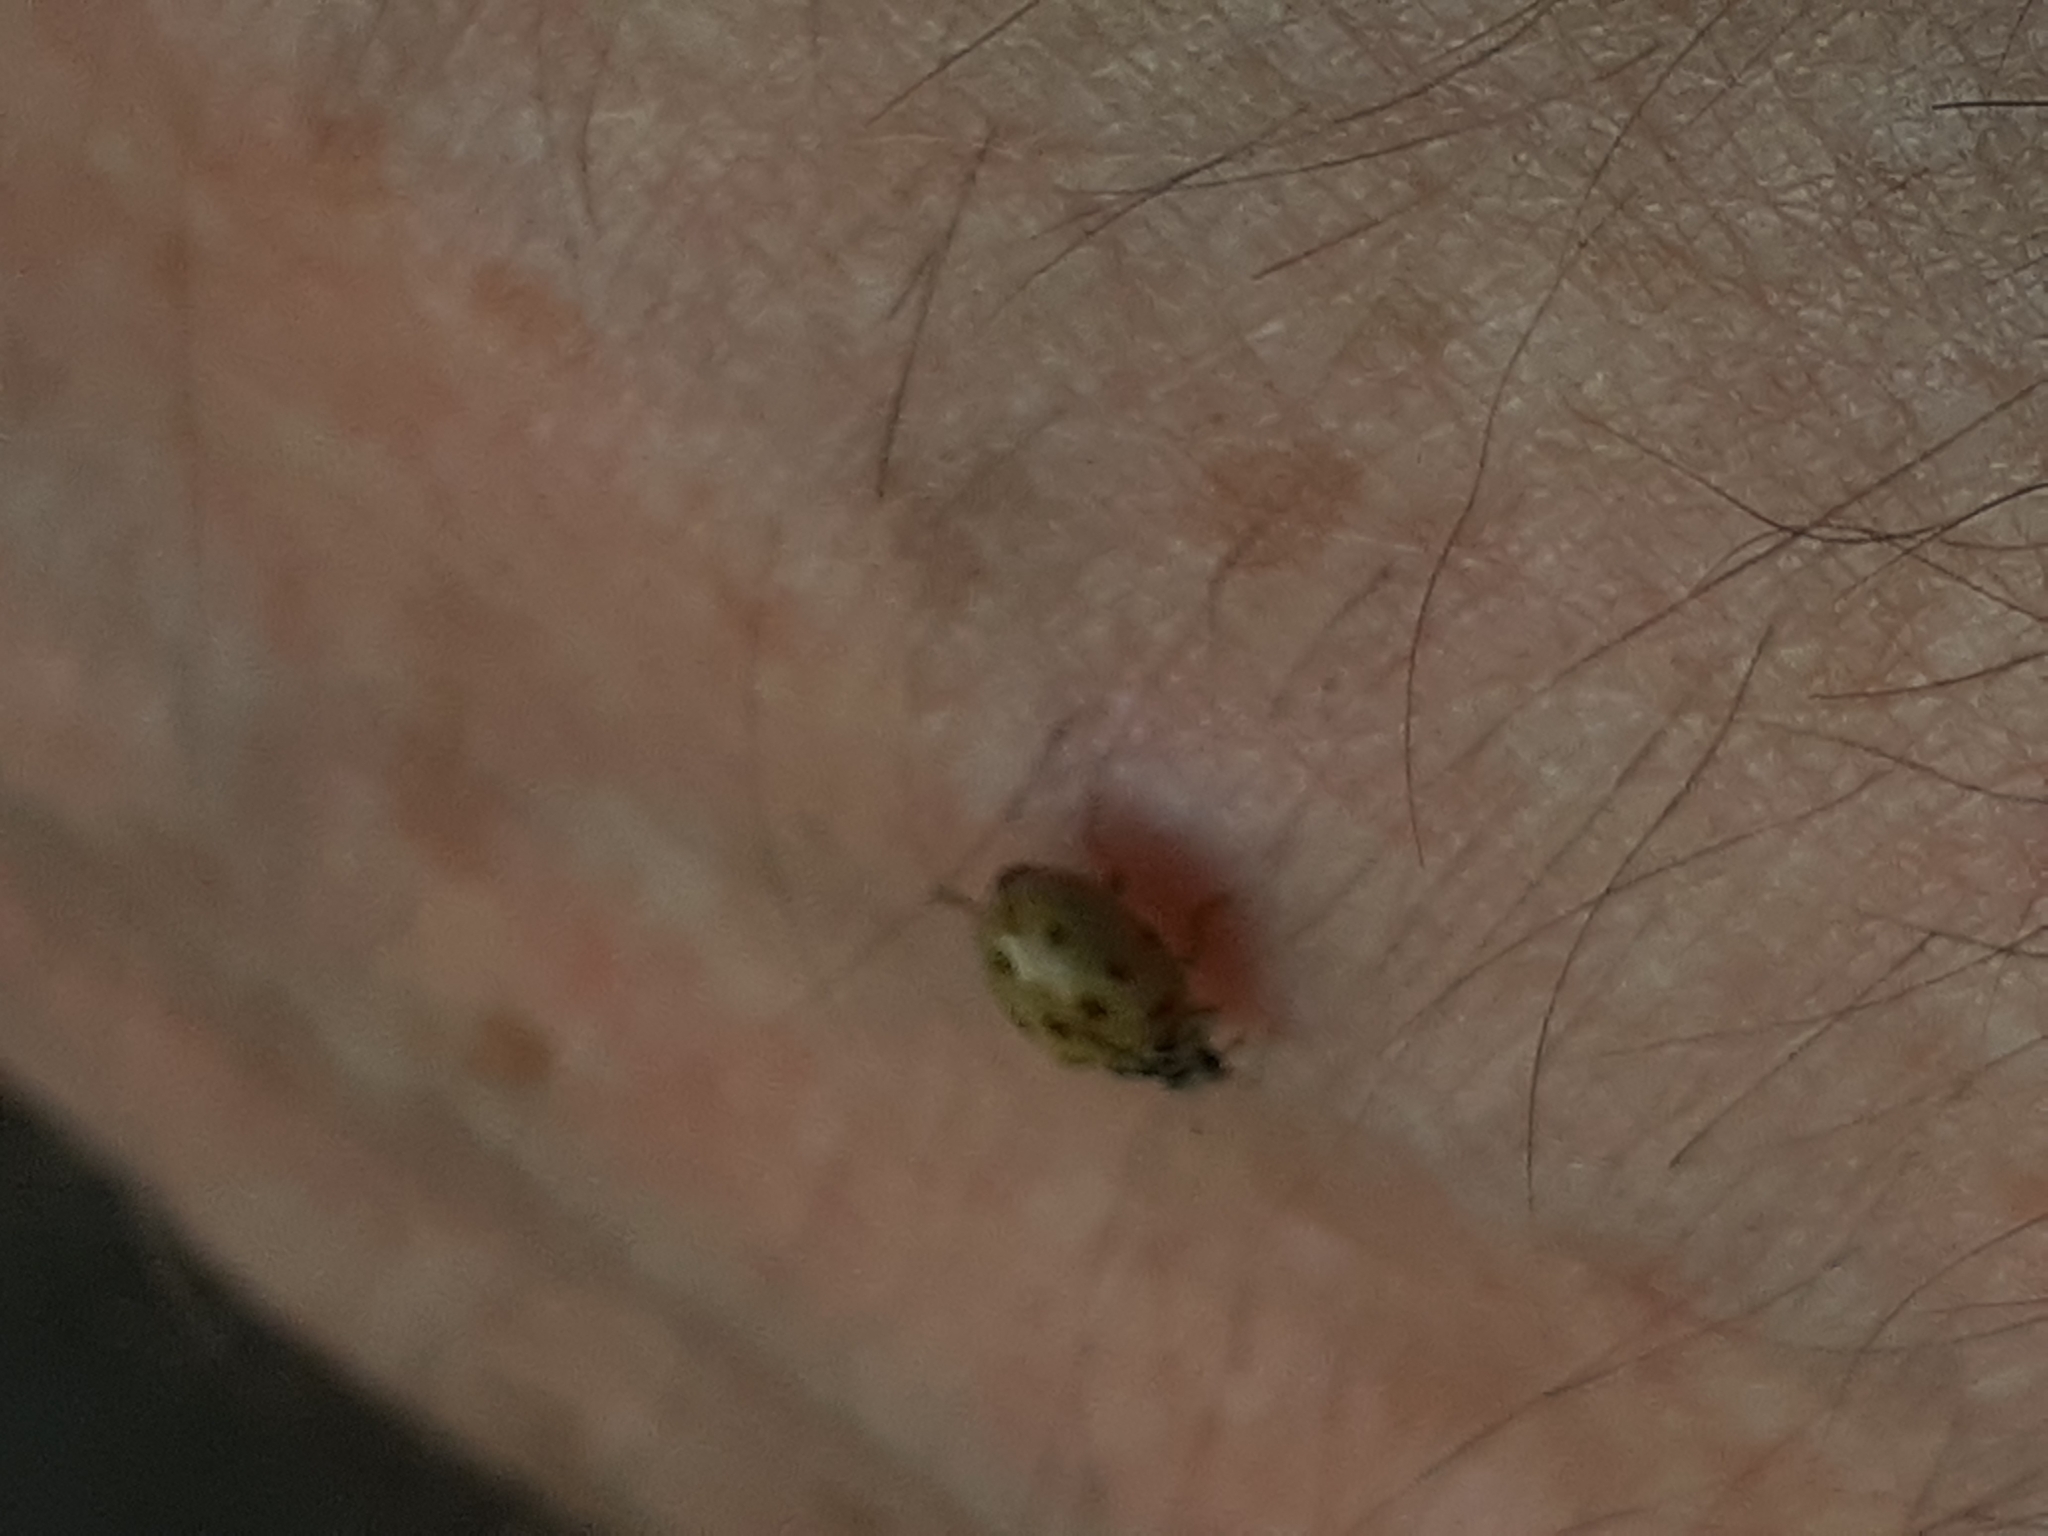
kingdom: Animalia
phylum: Arthropoda
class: Insecta
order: Coleoptera
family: Coccinellidae
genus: Adalia
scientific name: Adalia decempunctata
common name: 10-spot ladybird
